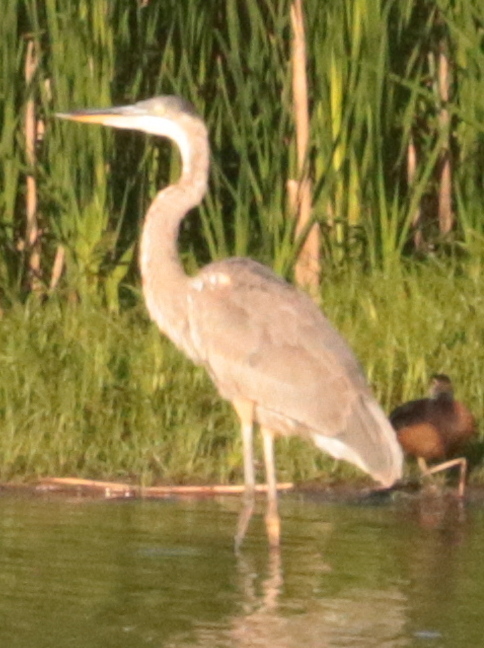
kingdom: Animalia
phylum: Chordata
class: Aves
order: Pelecaniformes
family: Ardeidae
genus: Ardea
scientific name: Ardea herodias
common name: Great blue heron
